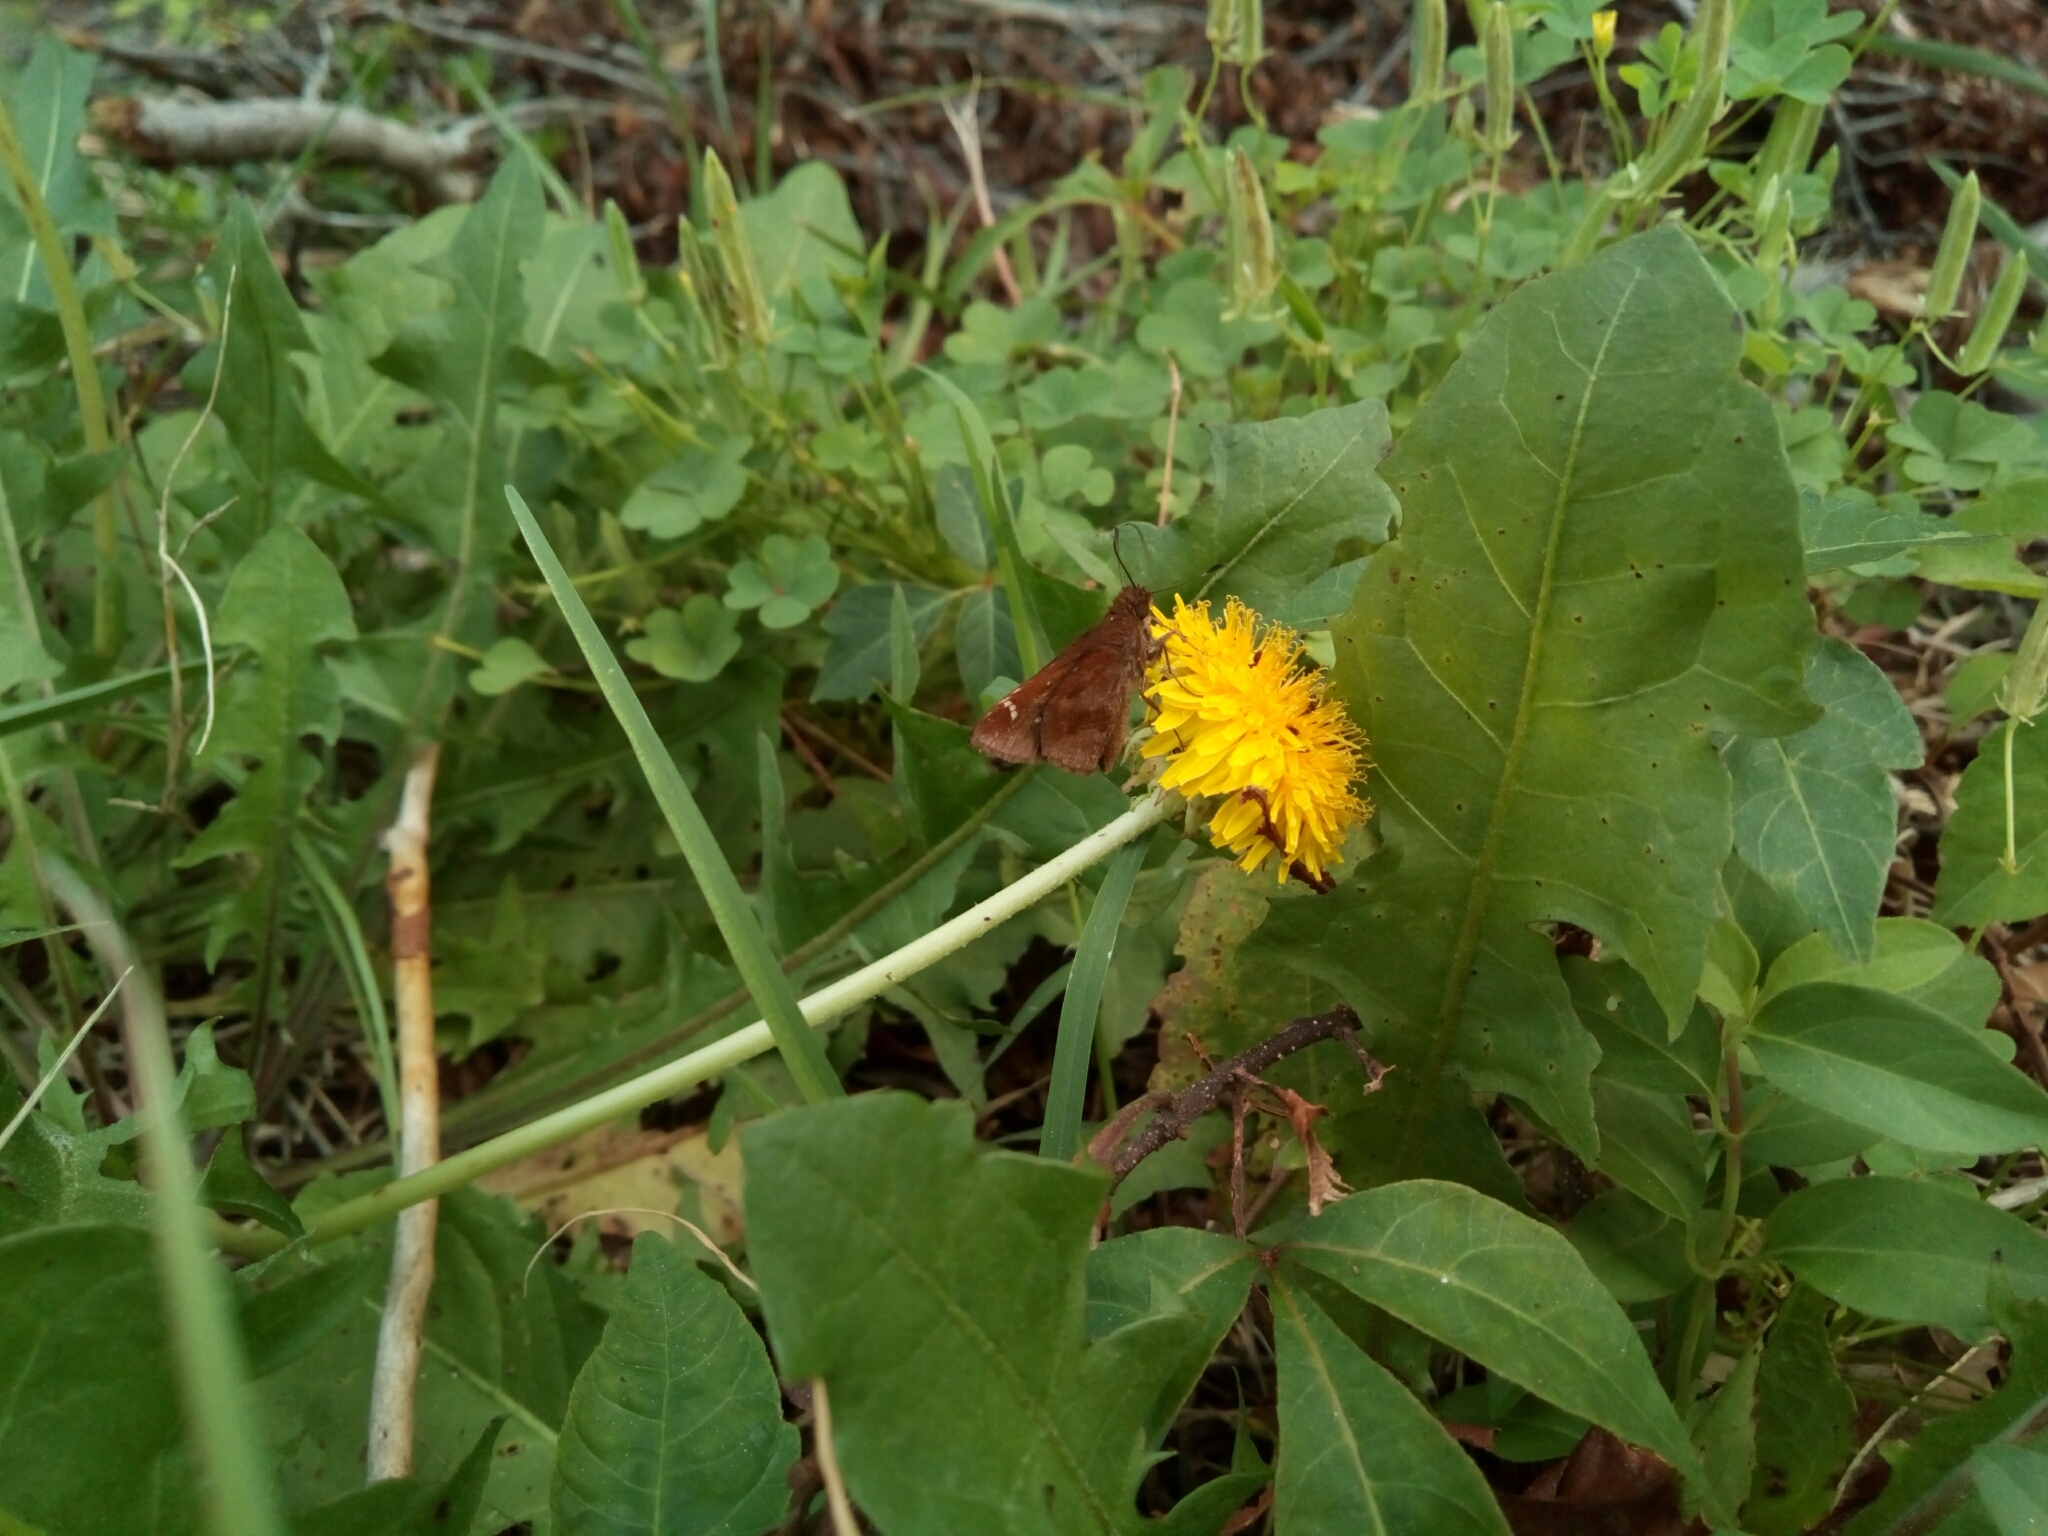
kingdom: Animalia
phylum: Arthropoda
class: Insecta
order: Lepidoptera
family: Hesperiidae
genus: Lerema
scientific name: Lerema accius
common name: Clouded skipper
